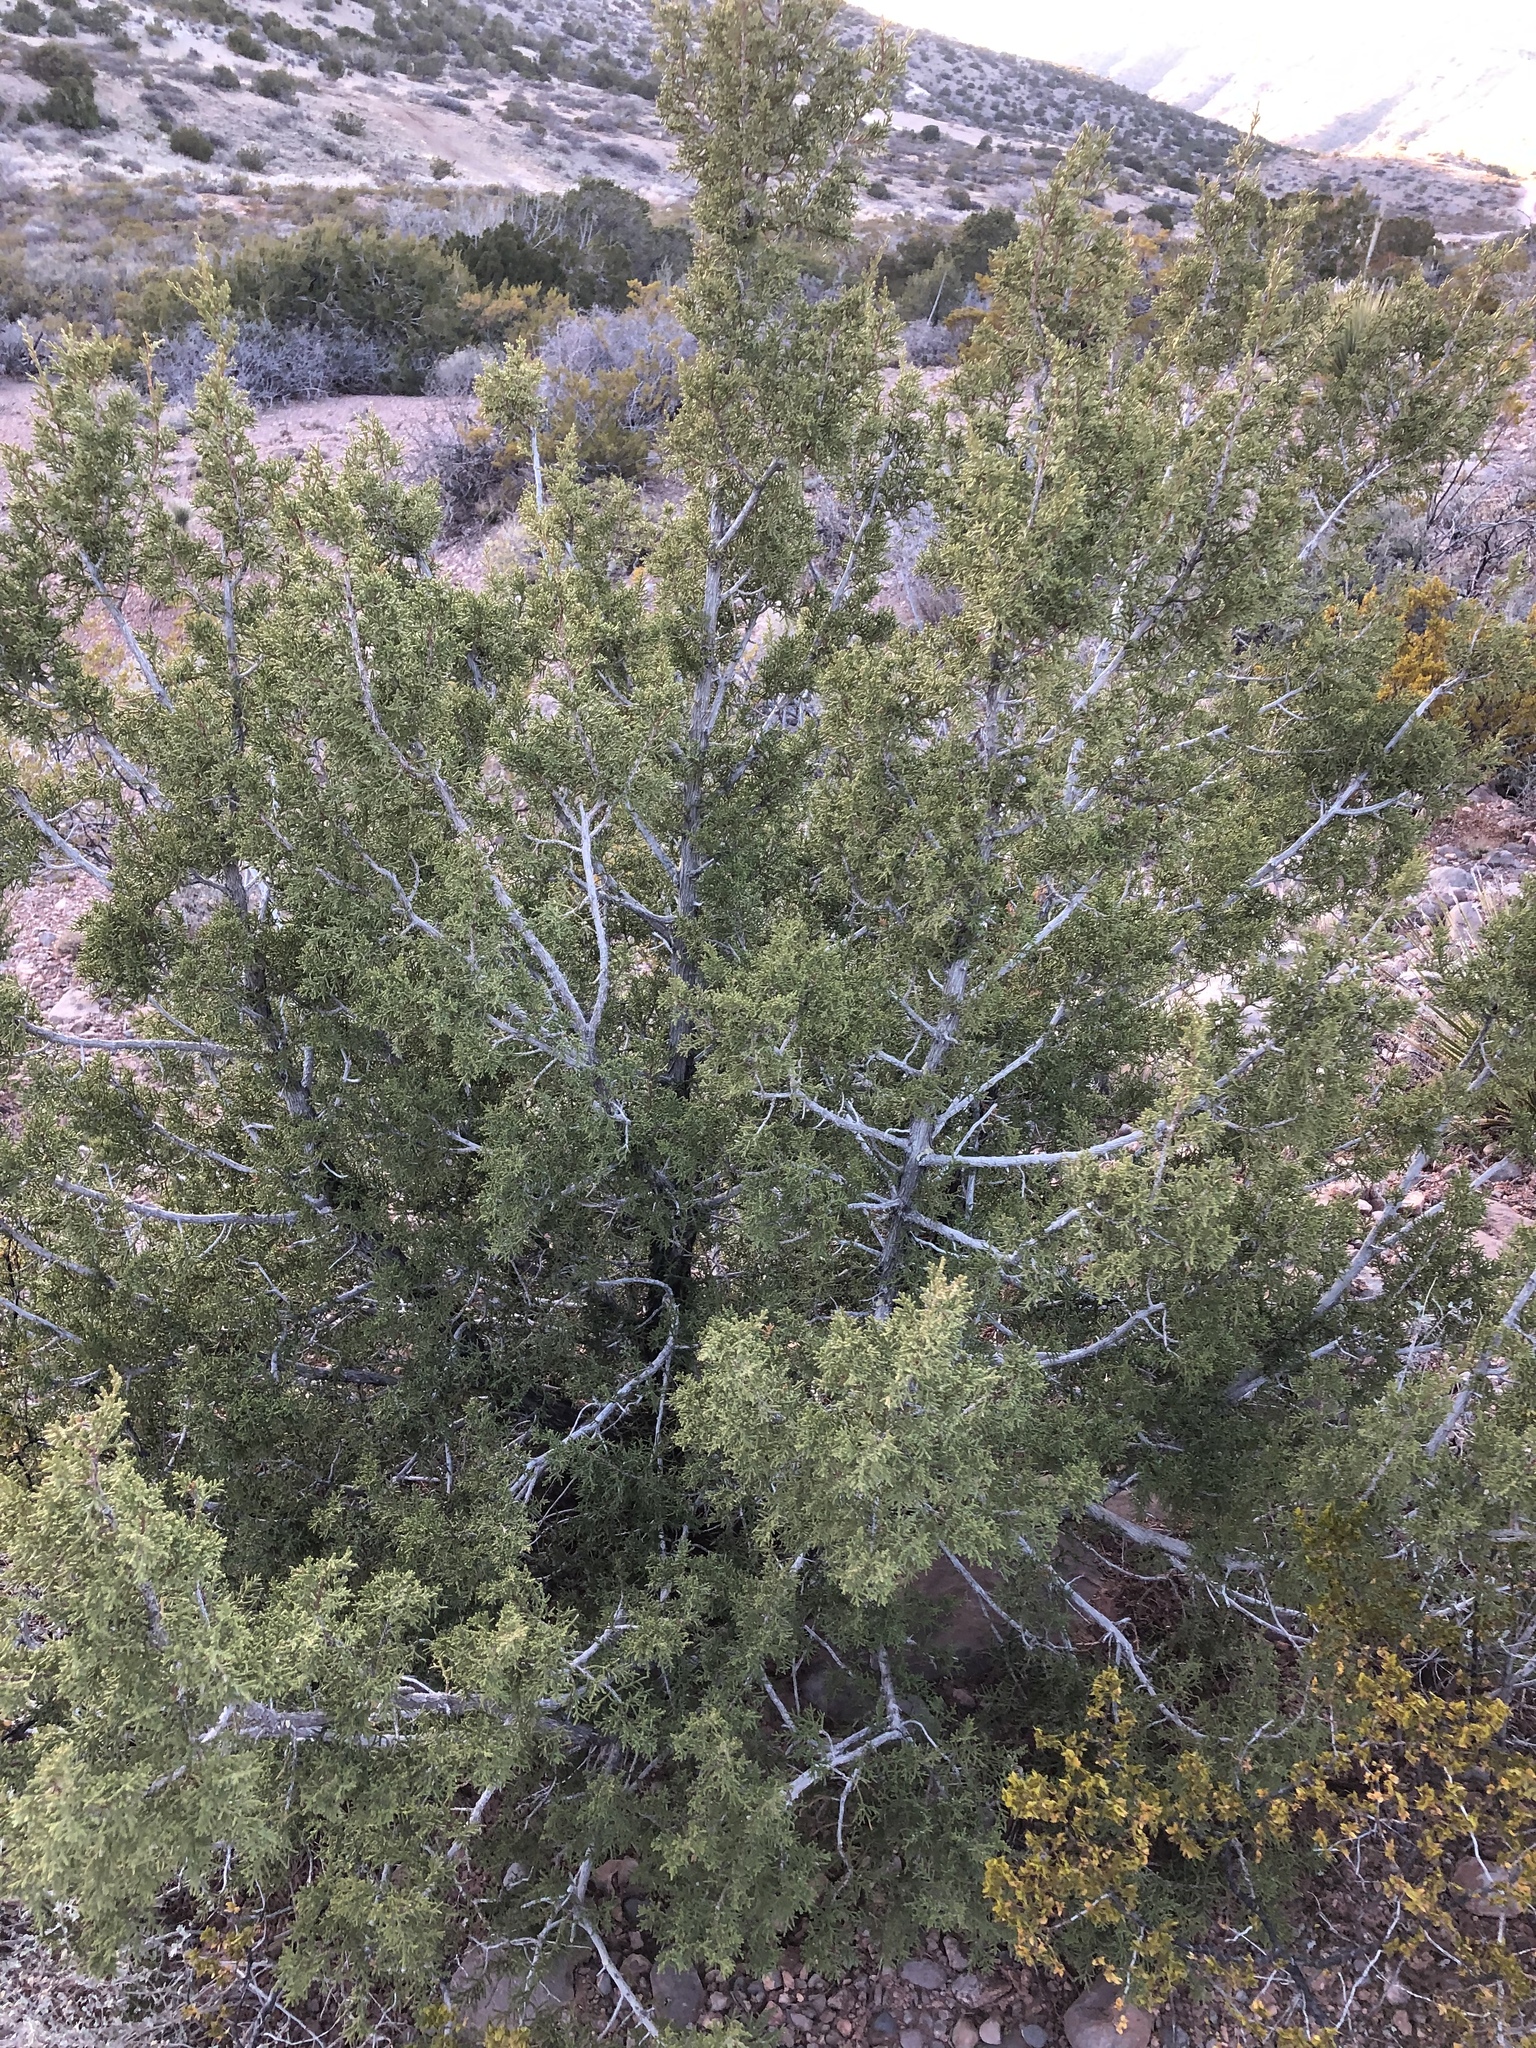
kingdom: Plantae
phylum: Tracheophyta
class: Pinopsida
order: Pinales
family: Cupressaceae
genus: Juniperus
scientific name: Juniperus monosperma
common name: One-seed juniper
